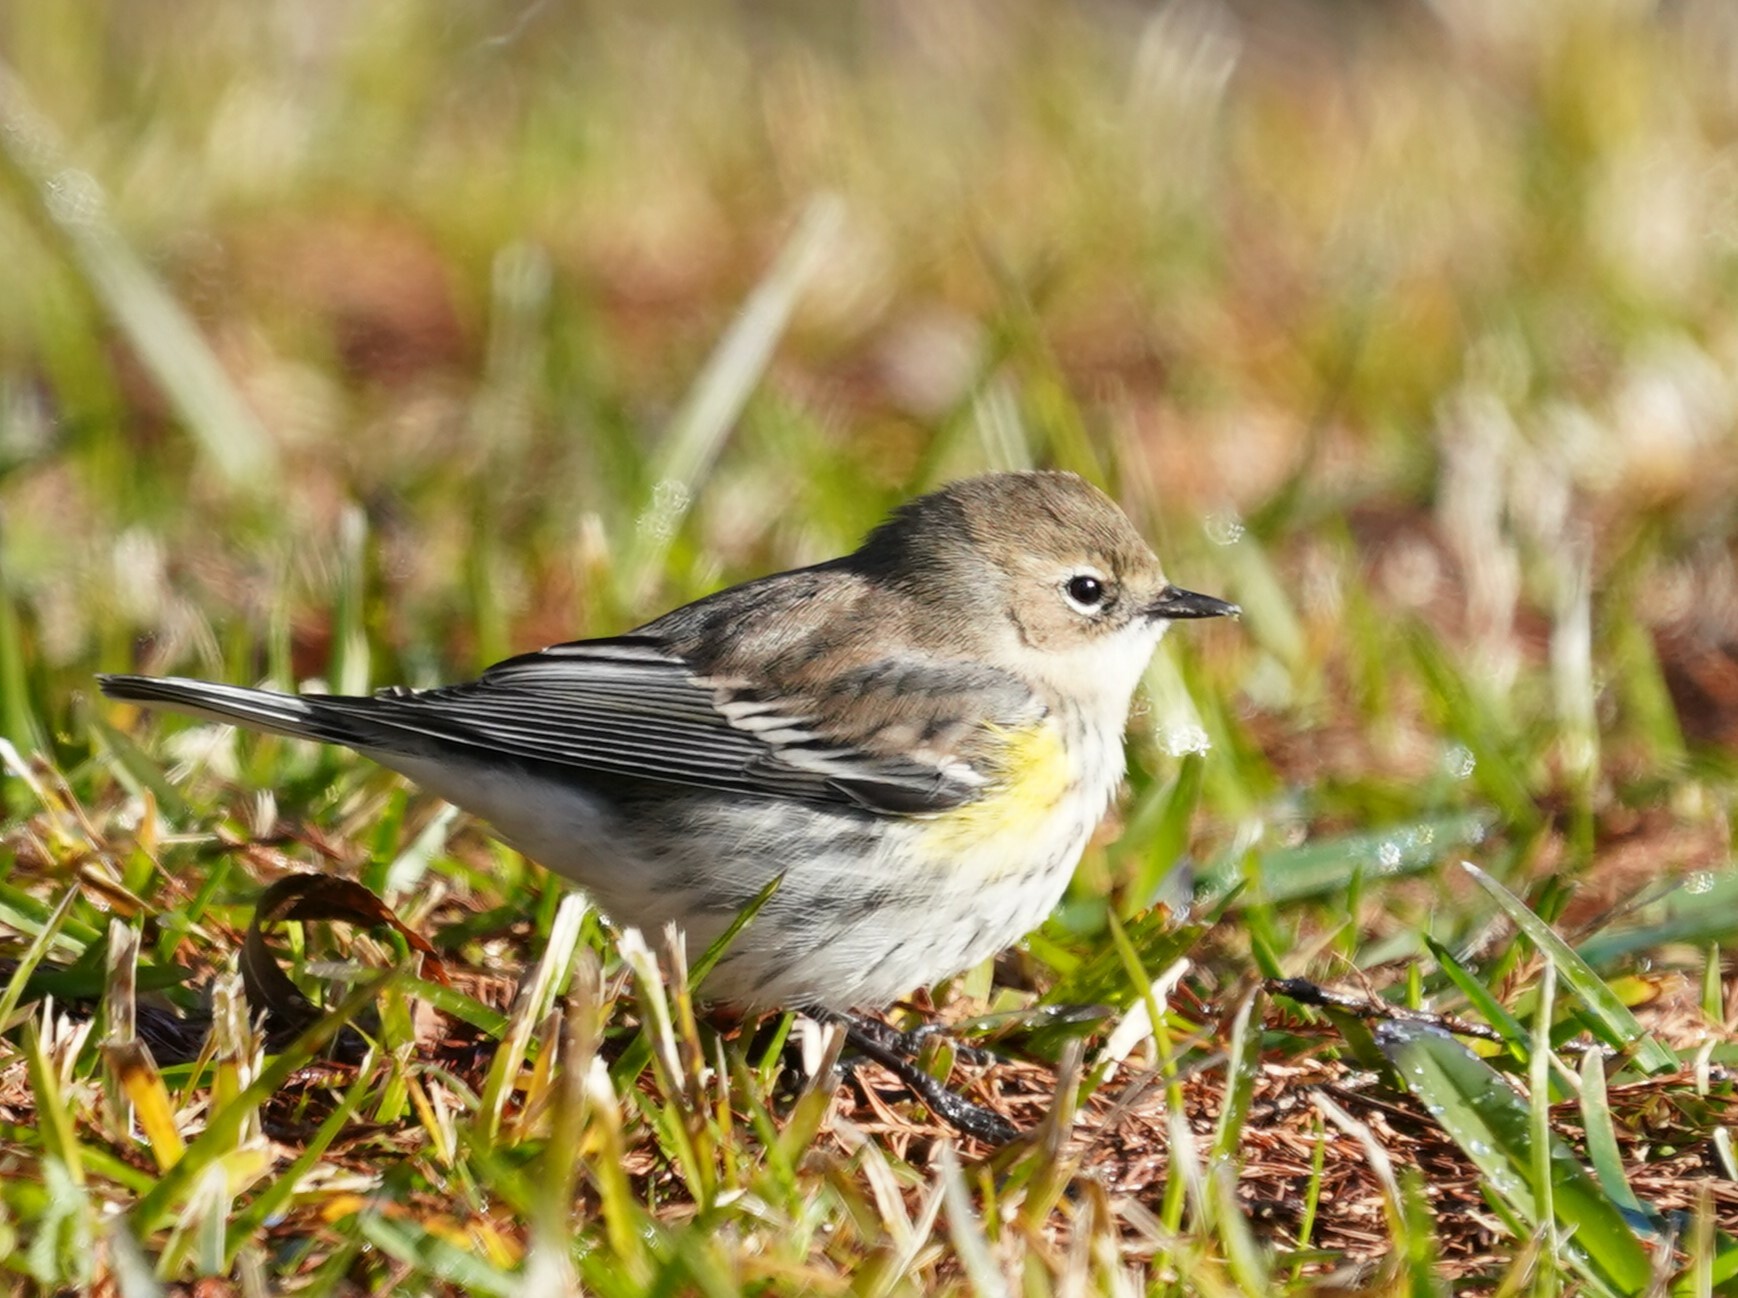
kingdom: Animalia
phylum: Chordata
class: Aves
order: Passeriformes
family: Parulidae
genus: Setophaga
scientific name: Setophaga coronata
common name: Myrtle warbler
